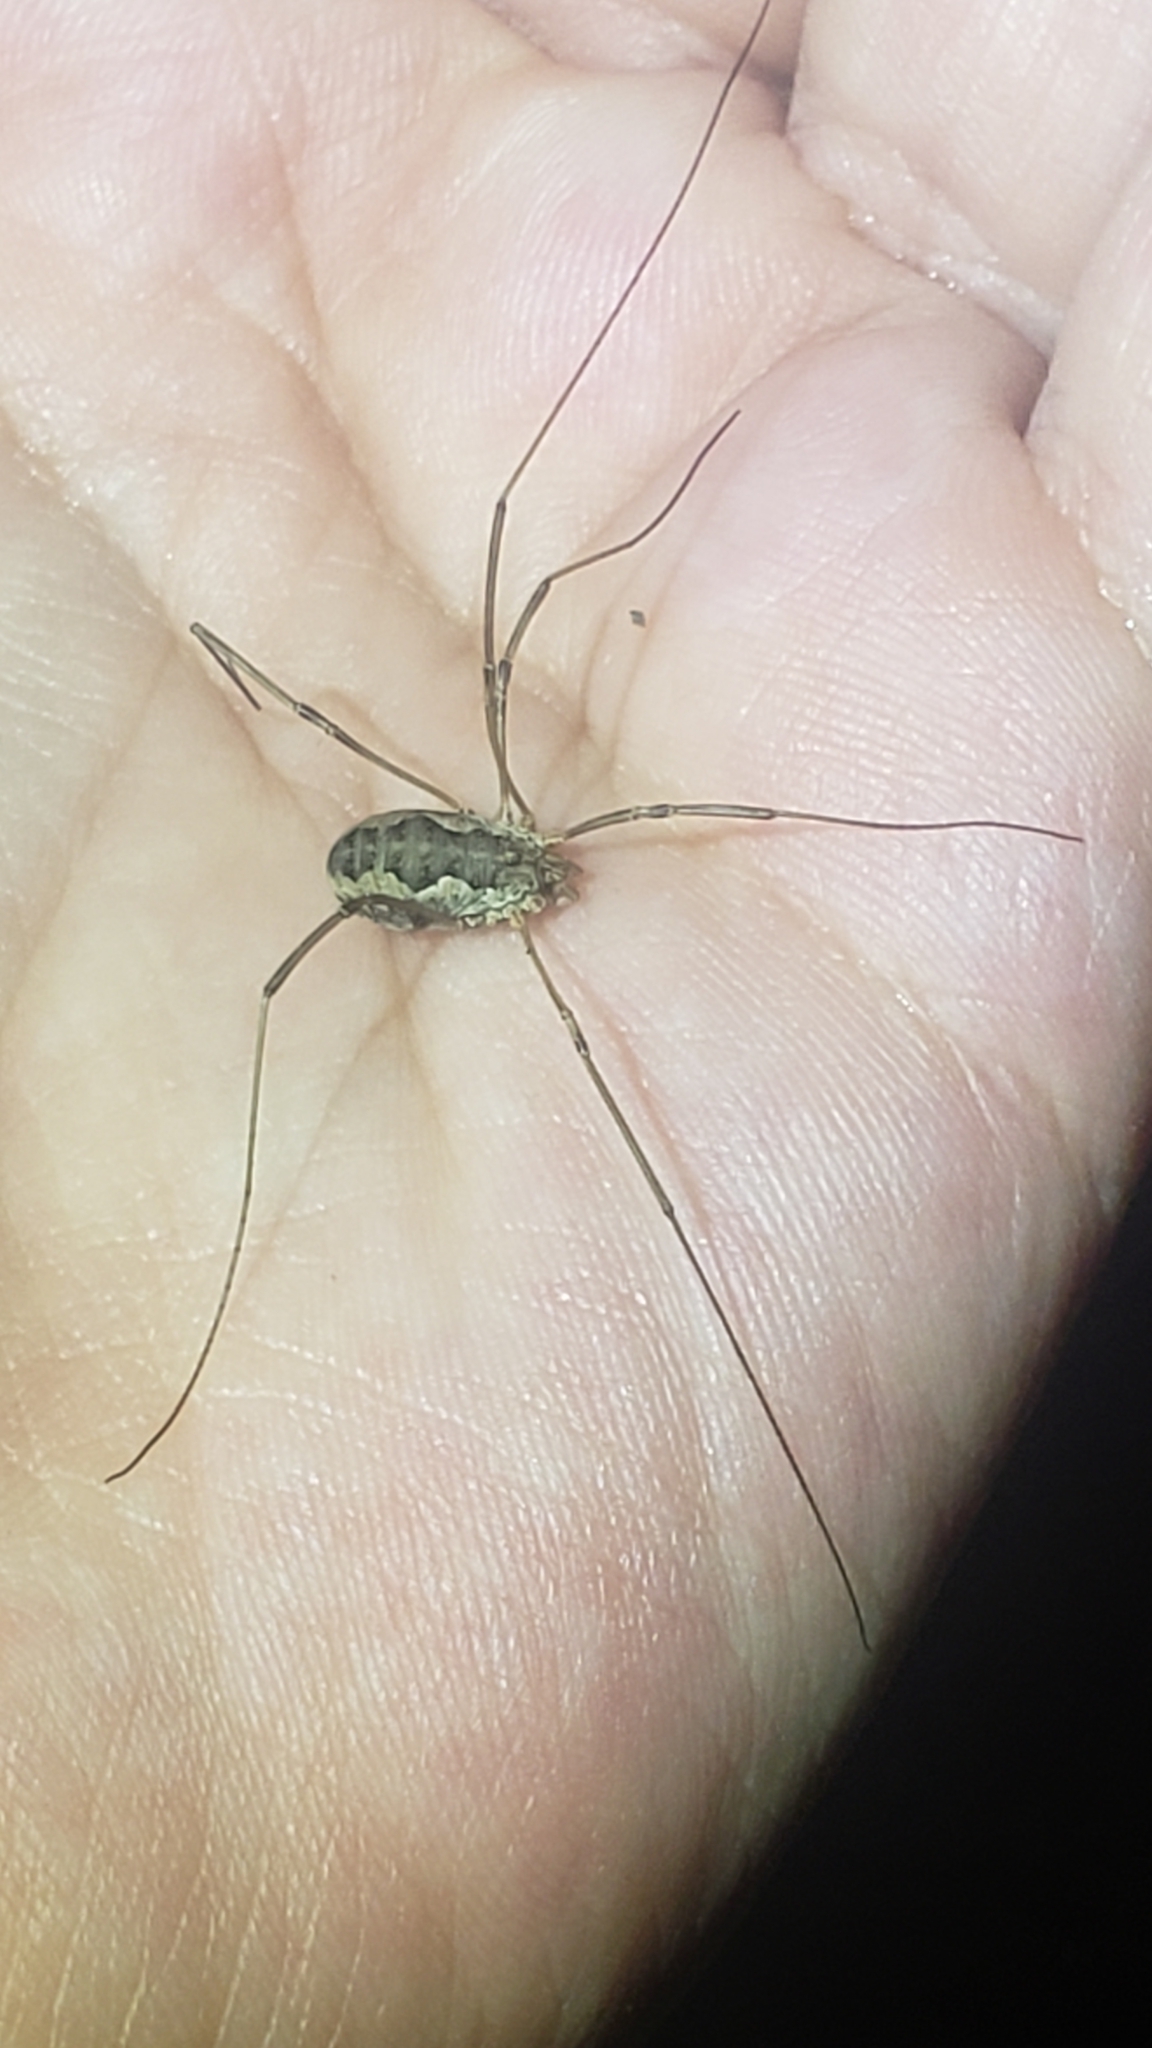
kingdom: Animalia
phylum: Arthropoda
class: Arachnida
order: Opiliones
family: Phalangiidae
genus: Phalangium
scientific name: Phalangium opilio
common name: Daddy longleg
